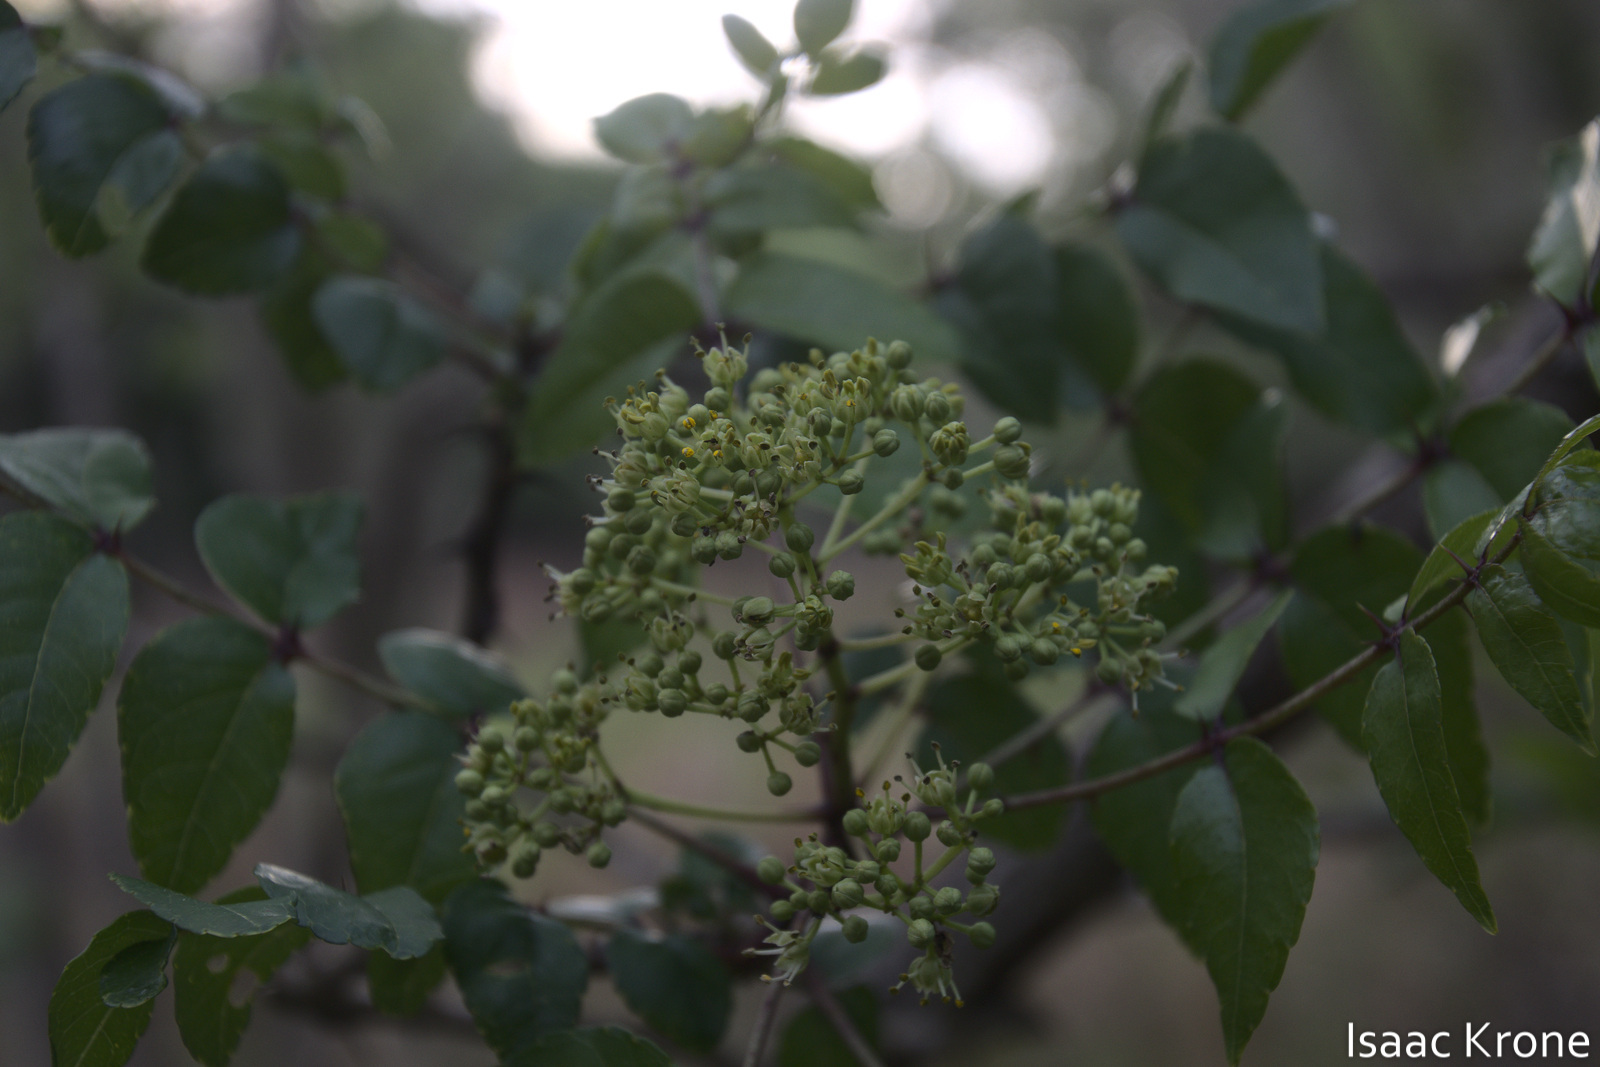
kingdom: Plantae
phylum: Tracheophyta
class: Magnoliopsida
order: Sapindales
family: Rutaceae
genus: Zanthoxylum
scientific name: Zanthoxylum clava-herculis
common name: Hercules'-club
